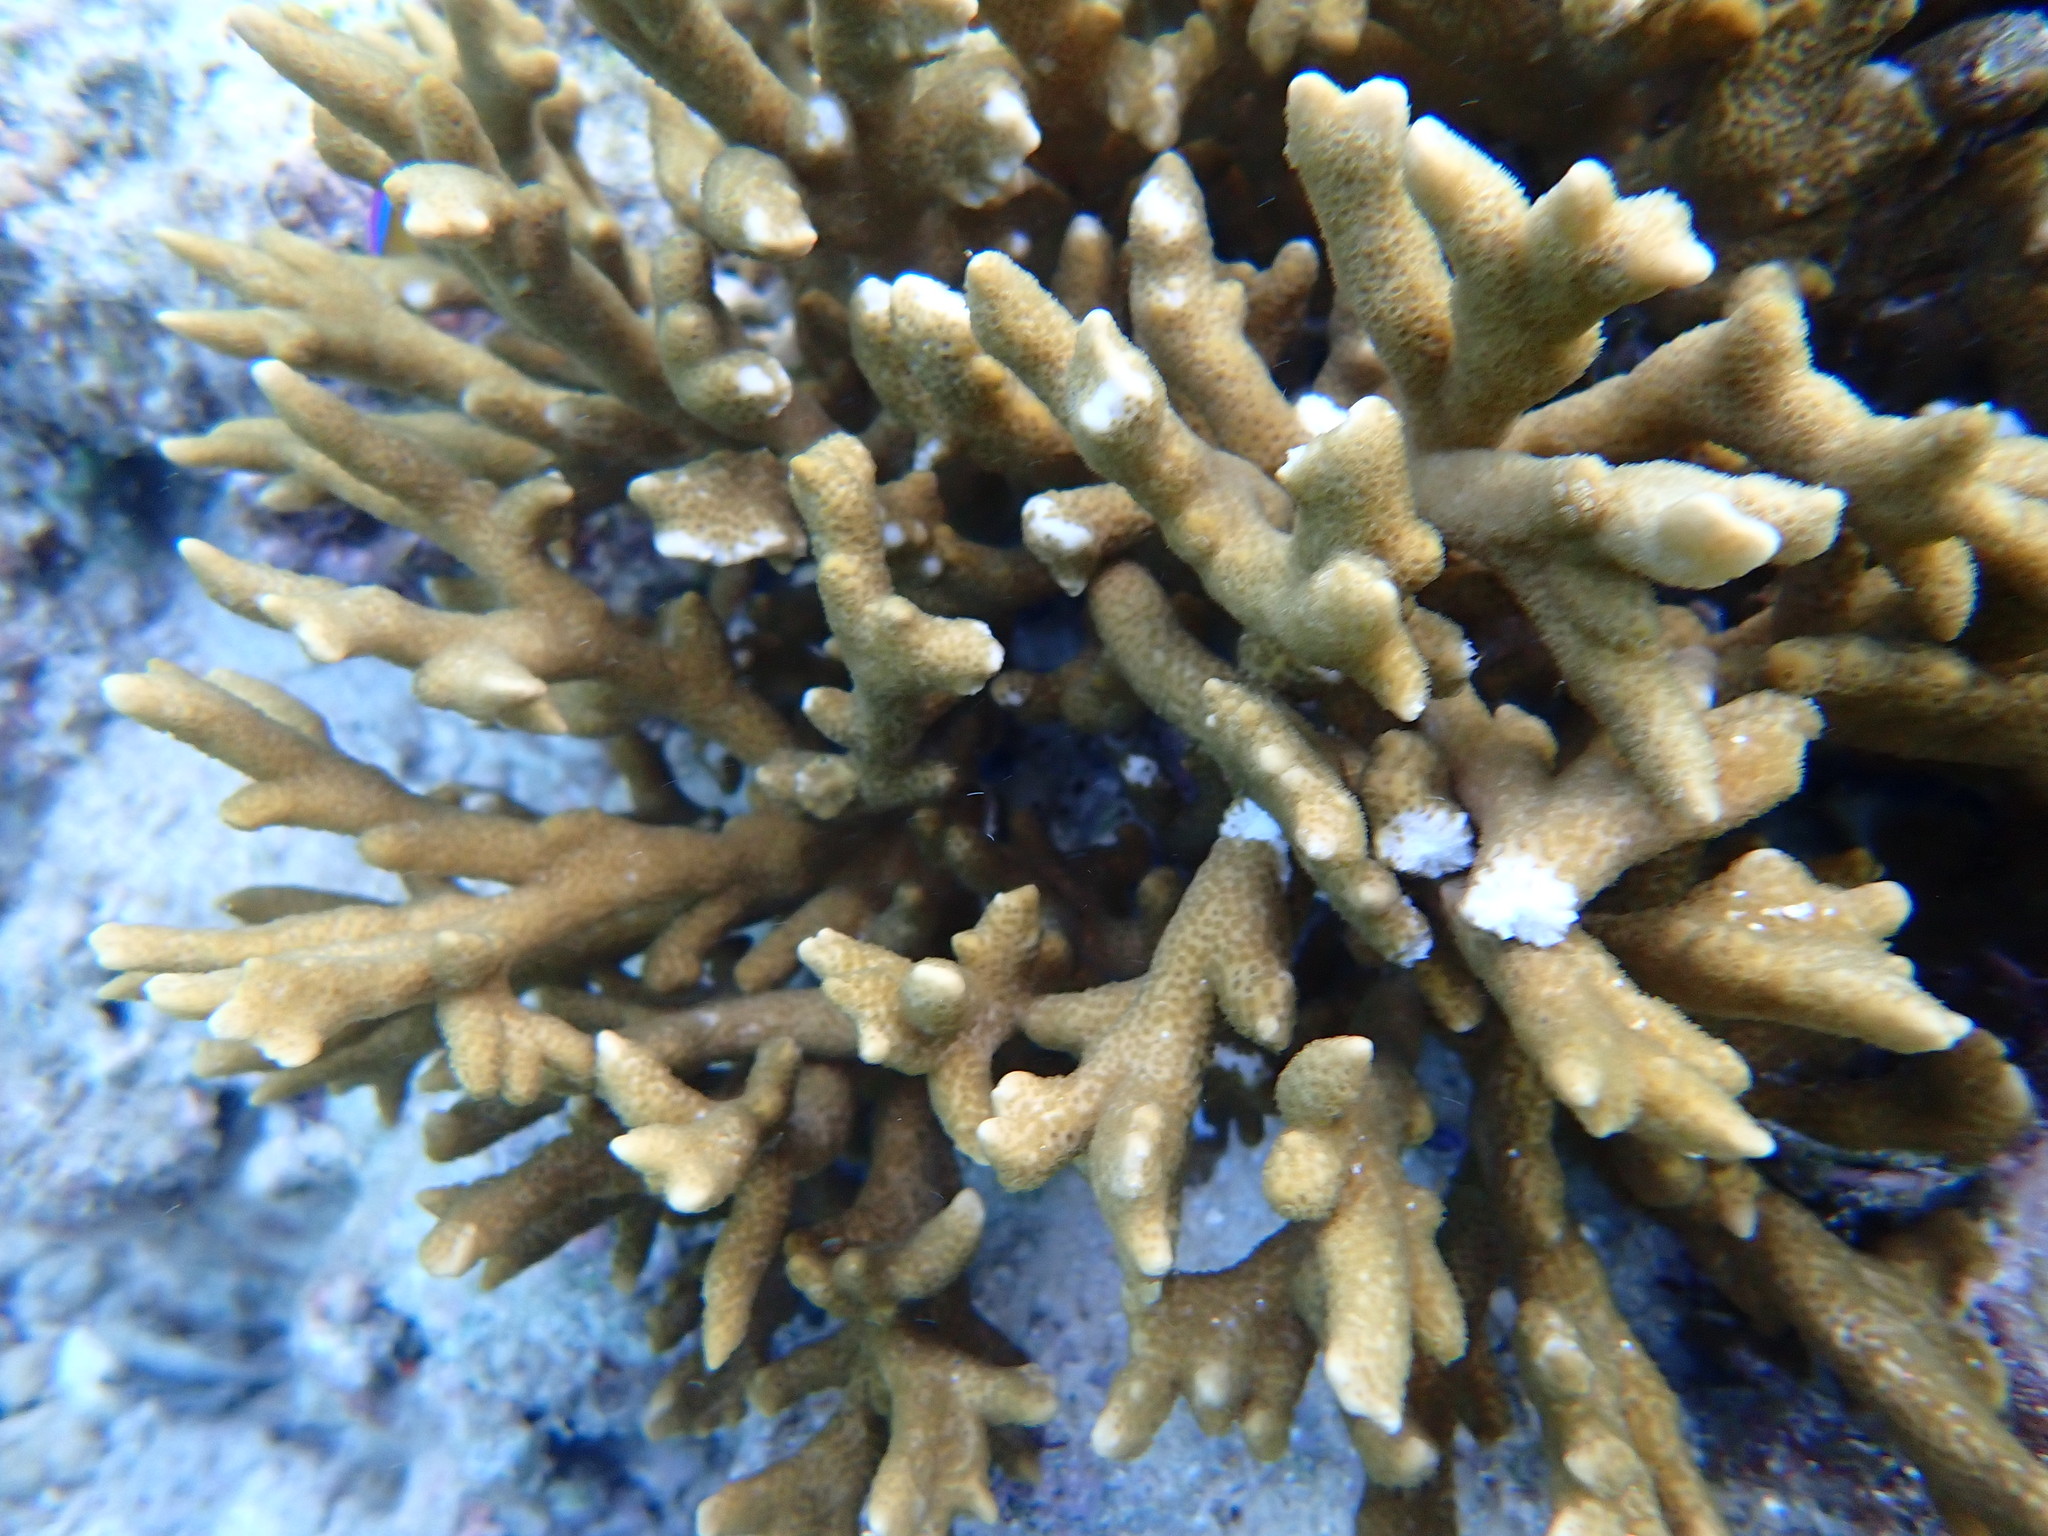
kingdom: Animalia
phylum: Cnidaria
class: Anthozoa
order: Scleractinia
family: Acroporidae
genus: Montipora
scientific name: Montipora digitata
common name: Pore coral
